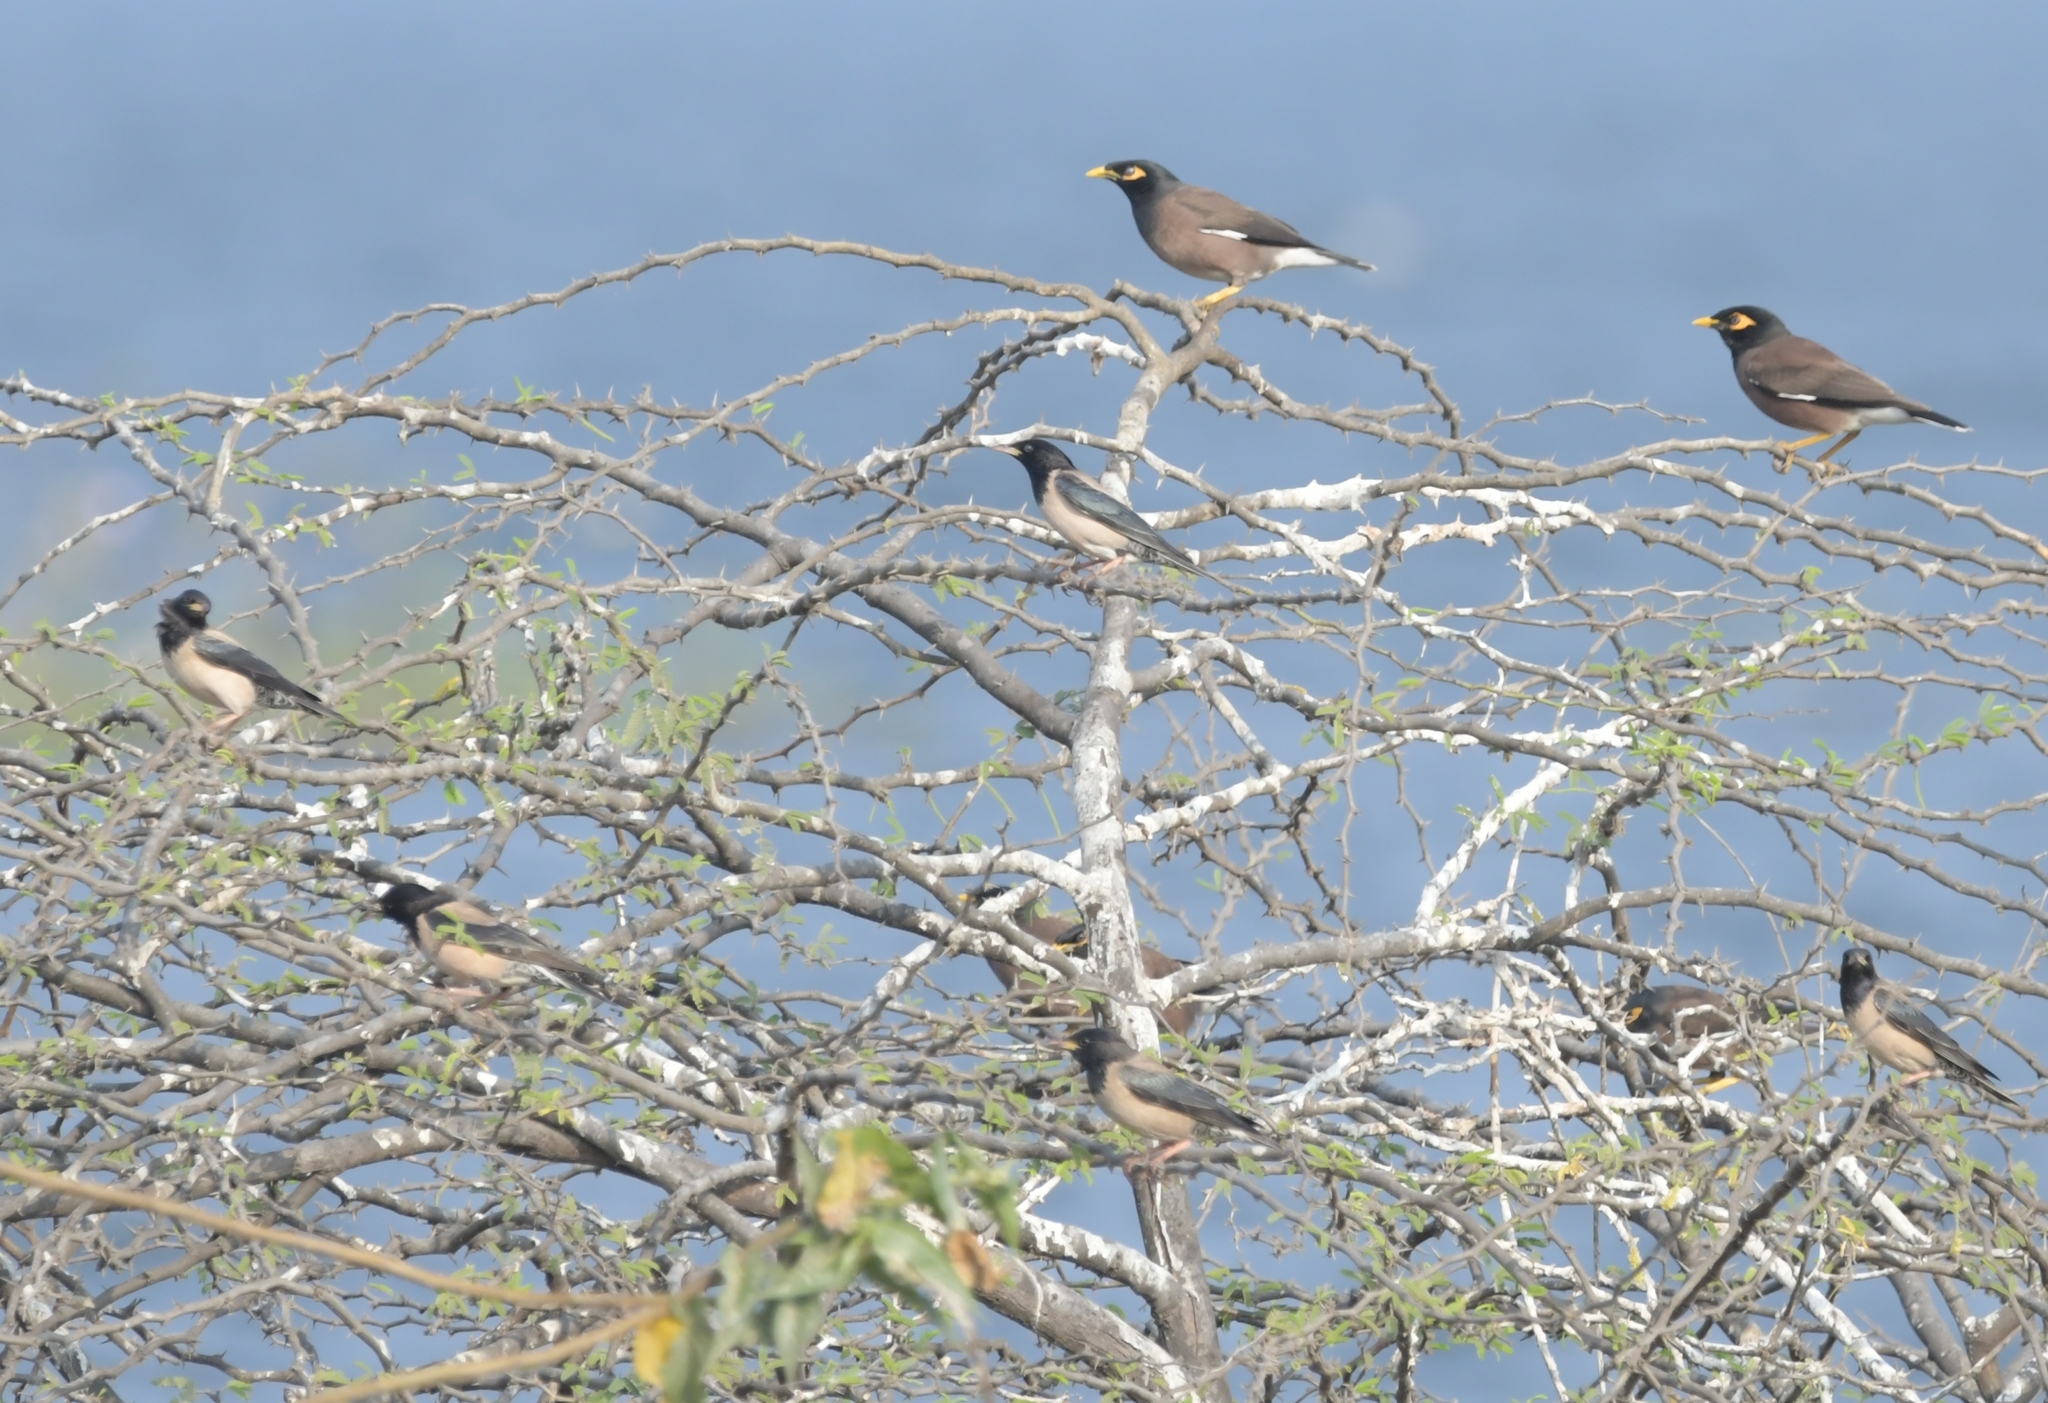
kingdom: Animalia
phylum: Chordata
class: Aves
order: Passeriformes
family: Sturnidae
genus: Acridotheres
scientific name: Acridotheres tristis
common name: Common myna
